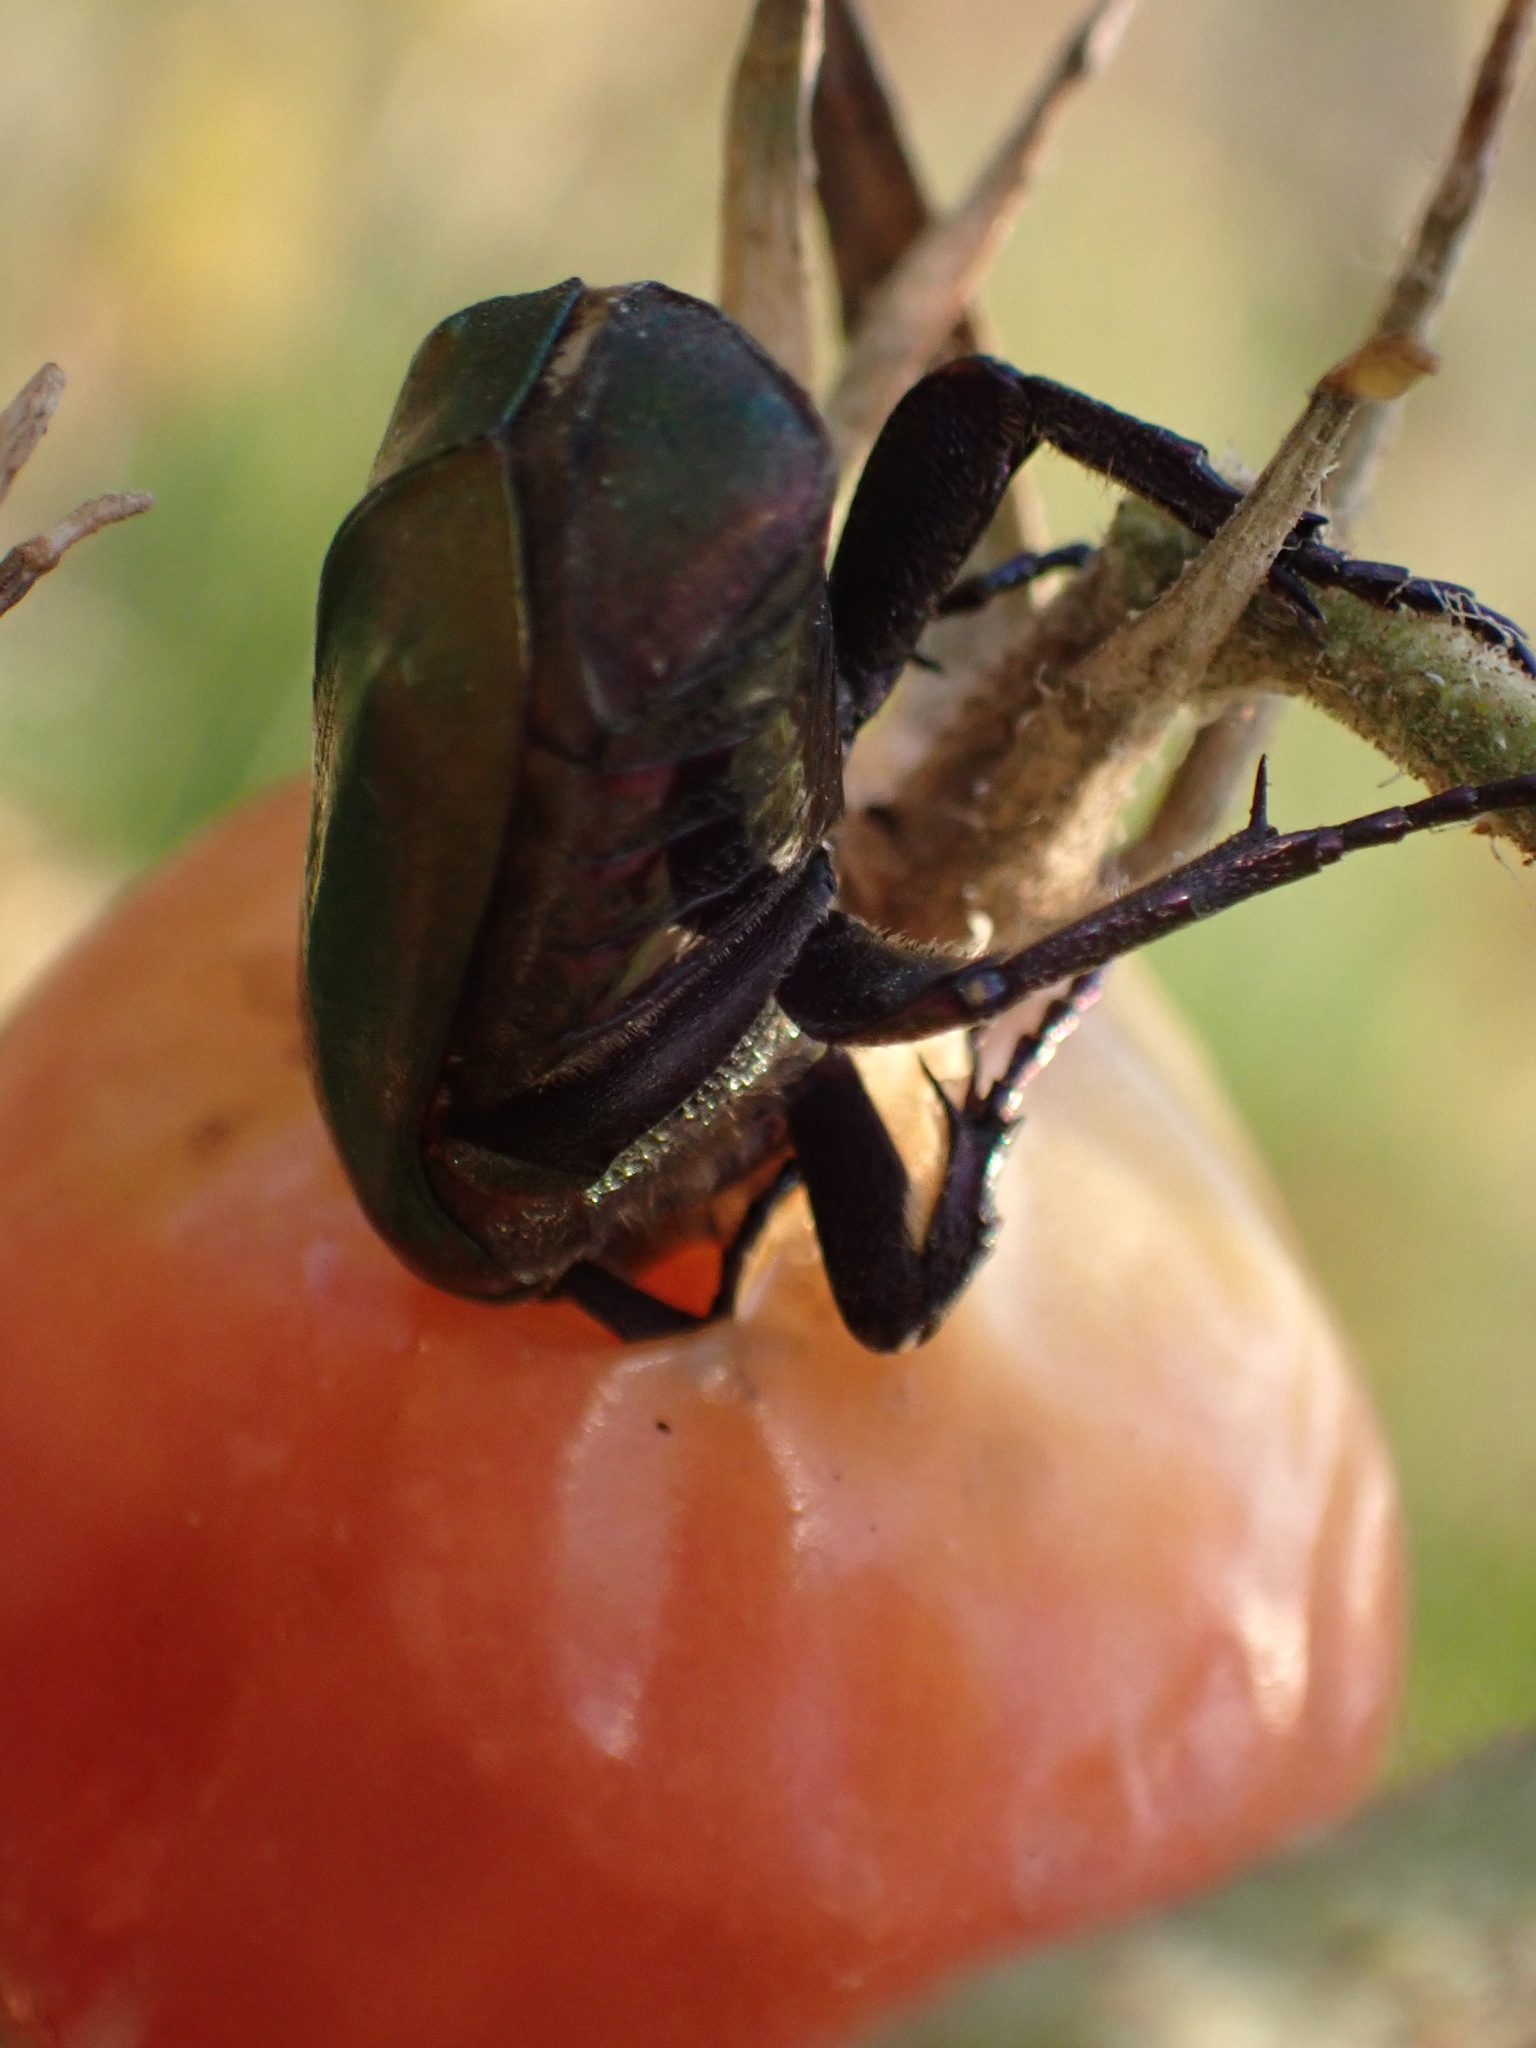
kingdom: Animalia
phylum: Arthropoda
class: Insecta
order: Coleoptera
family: Scarabaeidae
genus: Protaetia
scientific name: Protaetia cuprea
